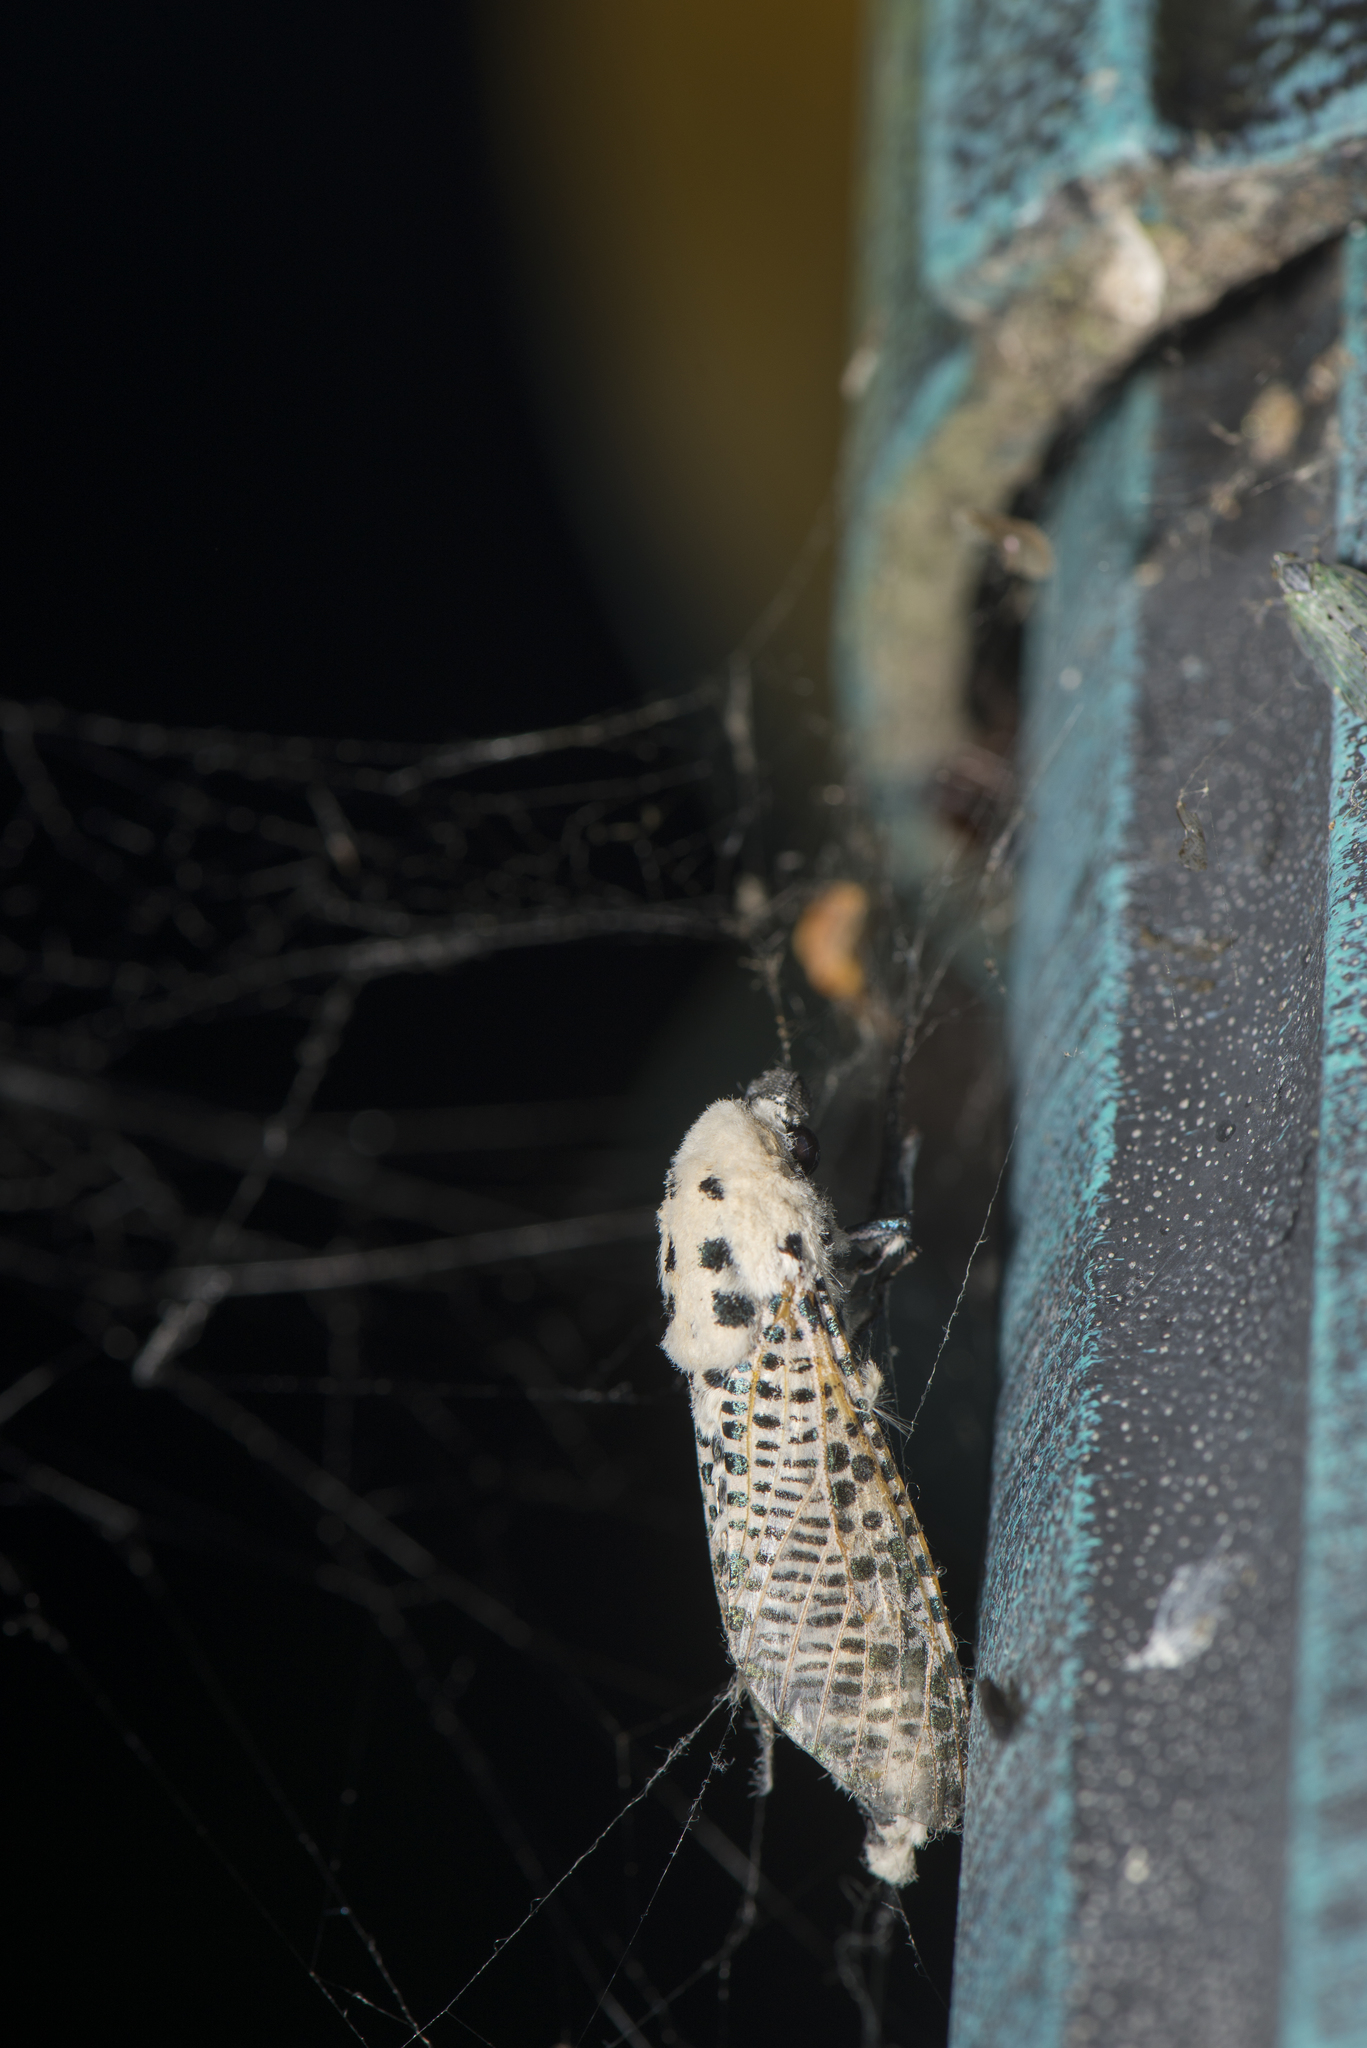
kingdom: Animalia
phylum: Arthropoda
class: Insecta
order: Lepidoptera
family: Cossidae
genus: Zeuzera
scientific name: Zeuzera multistrigata
